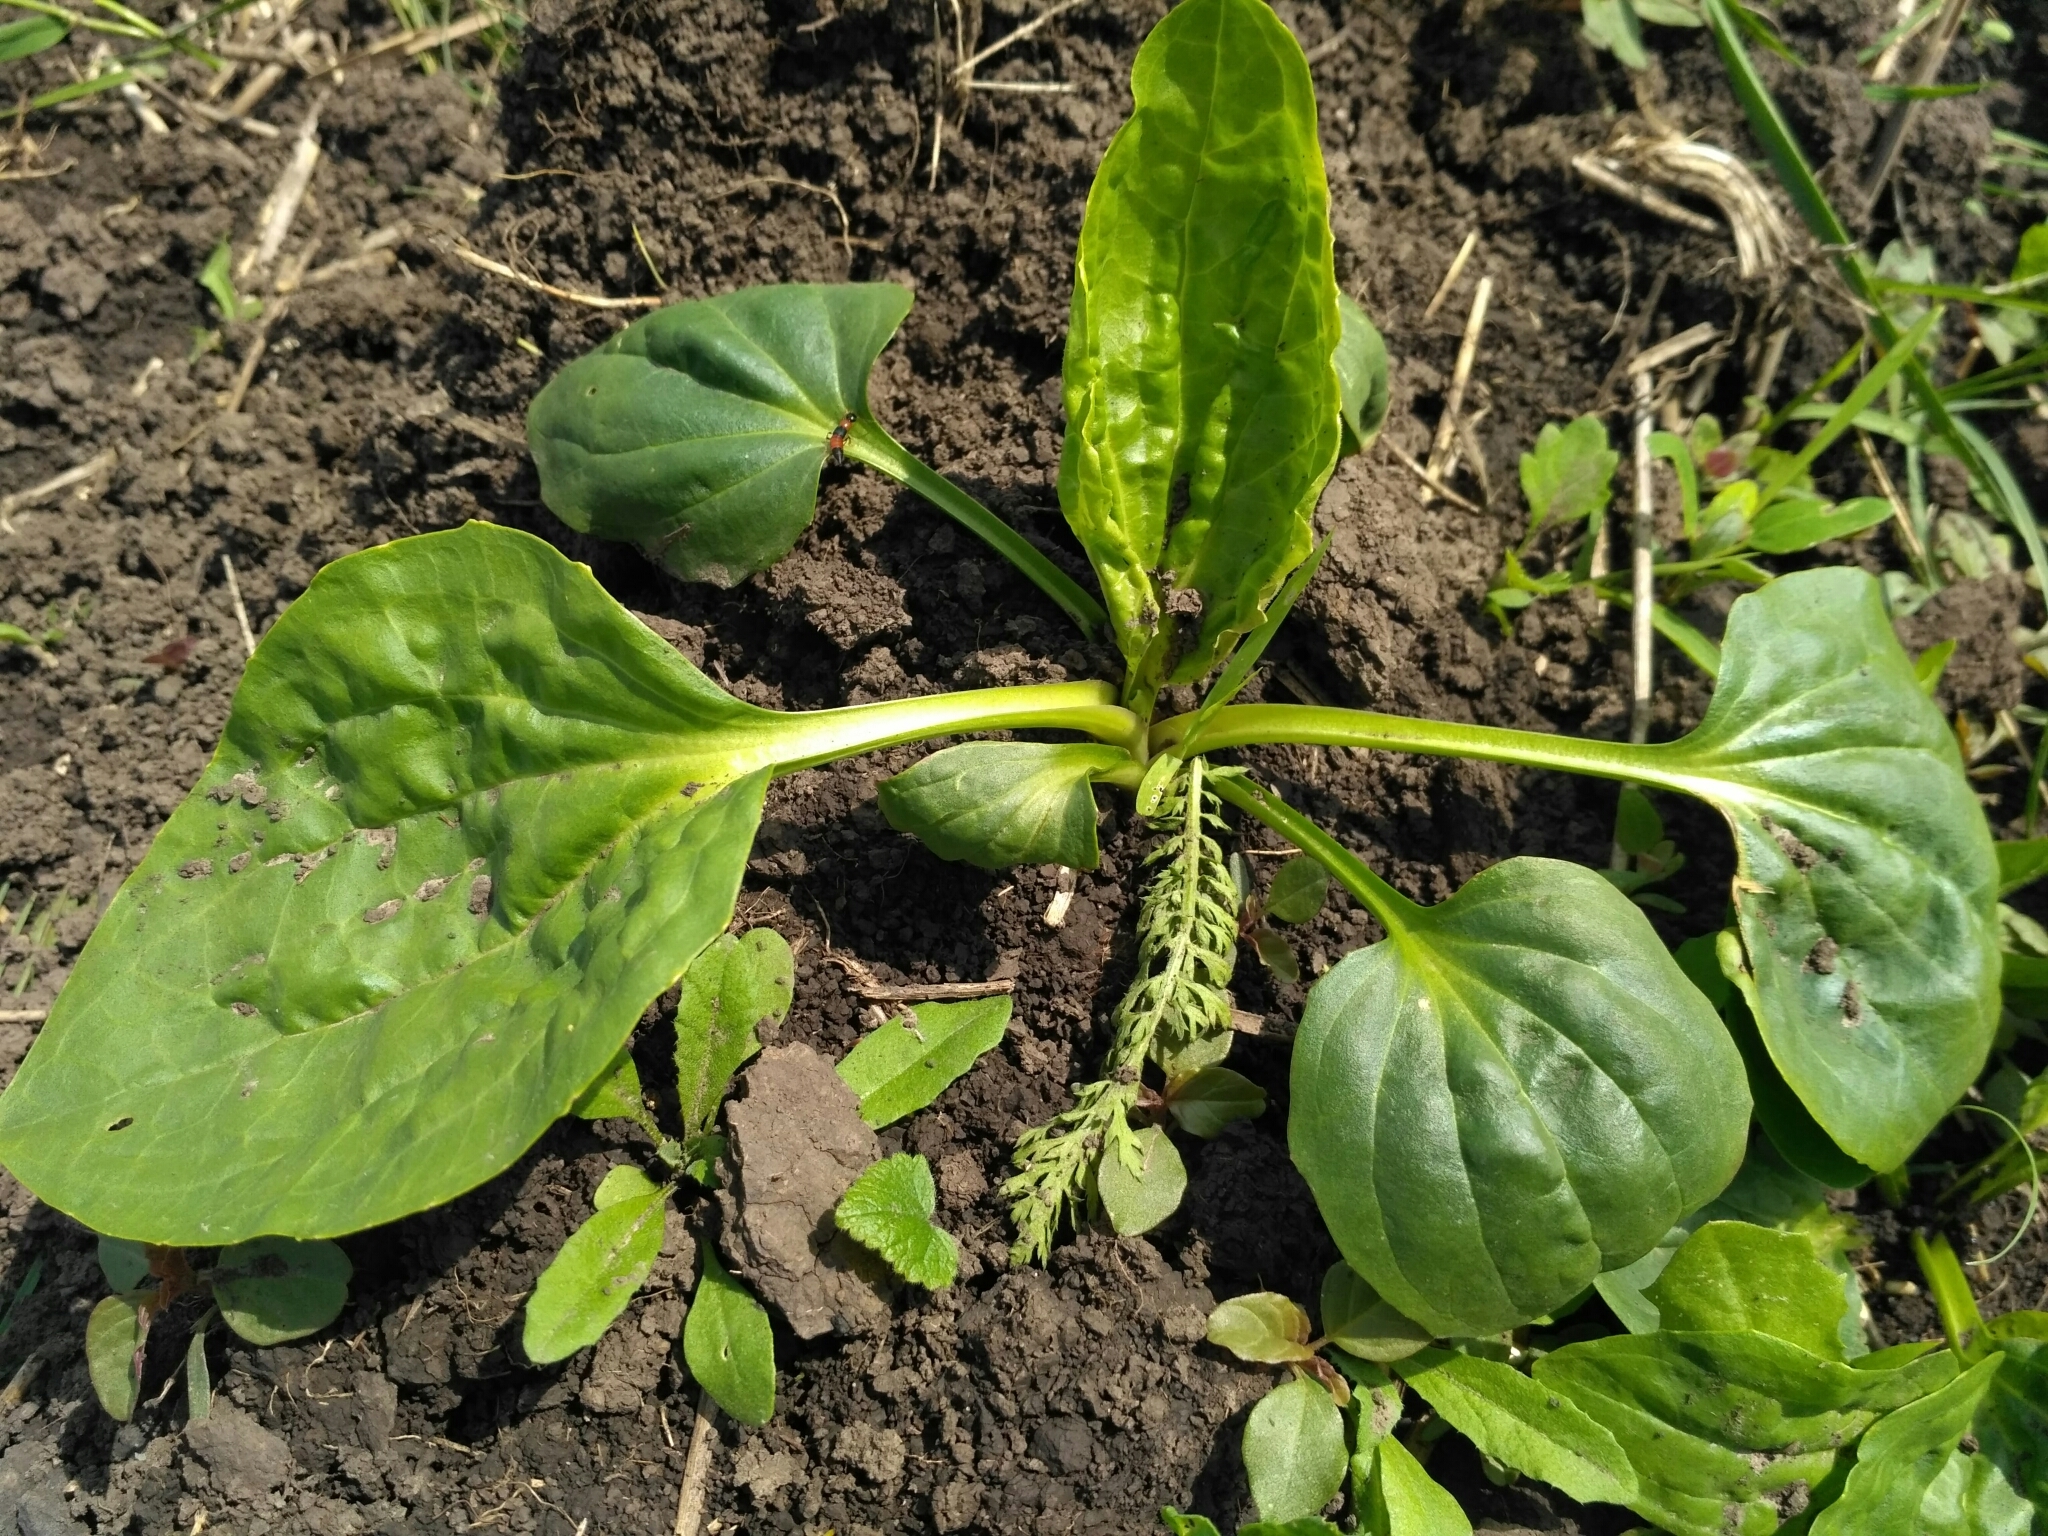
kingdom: Plantae
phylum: Tracheophyta
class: Magnoliopsida
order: Lamiales
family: Plantaginaceae
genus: Plantago
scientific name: Plantago major
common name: Common plantain
